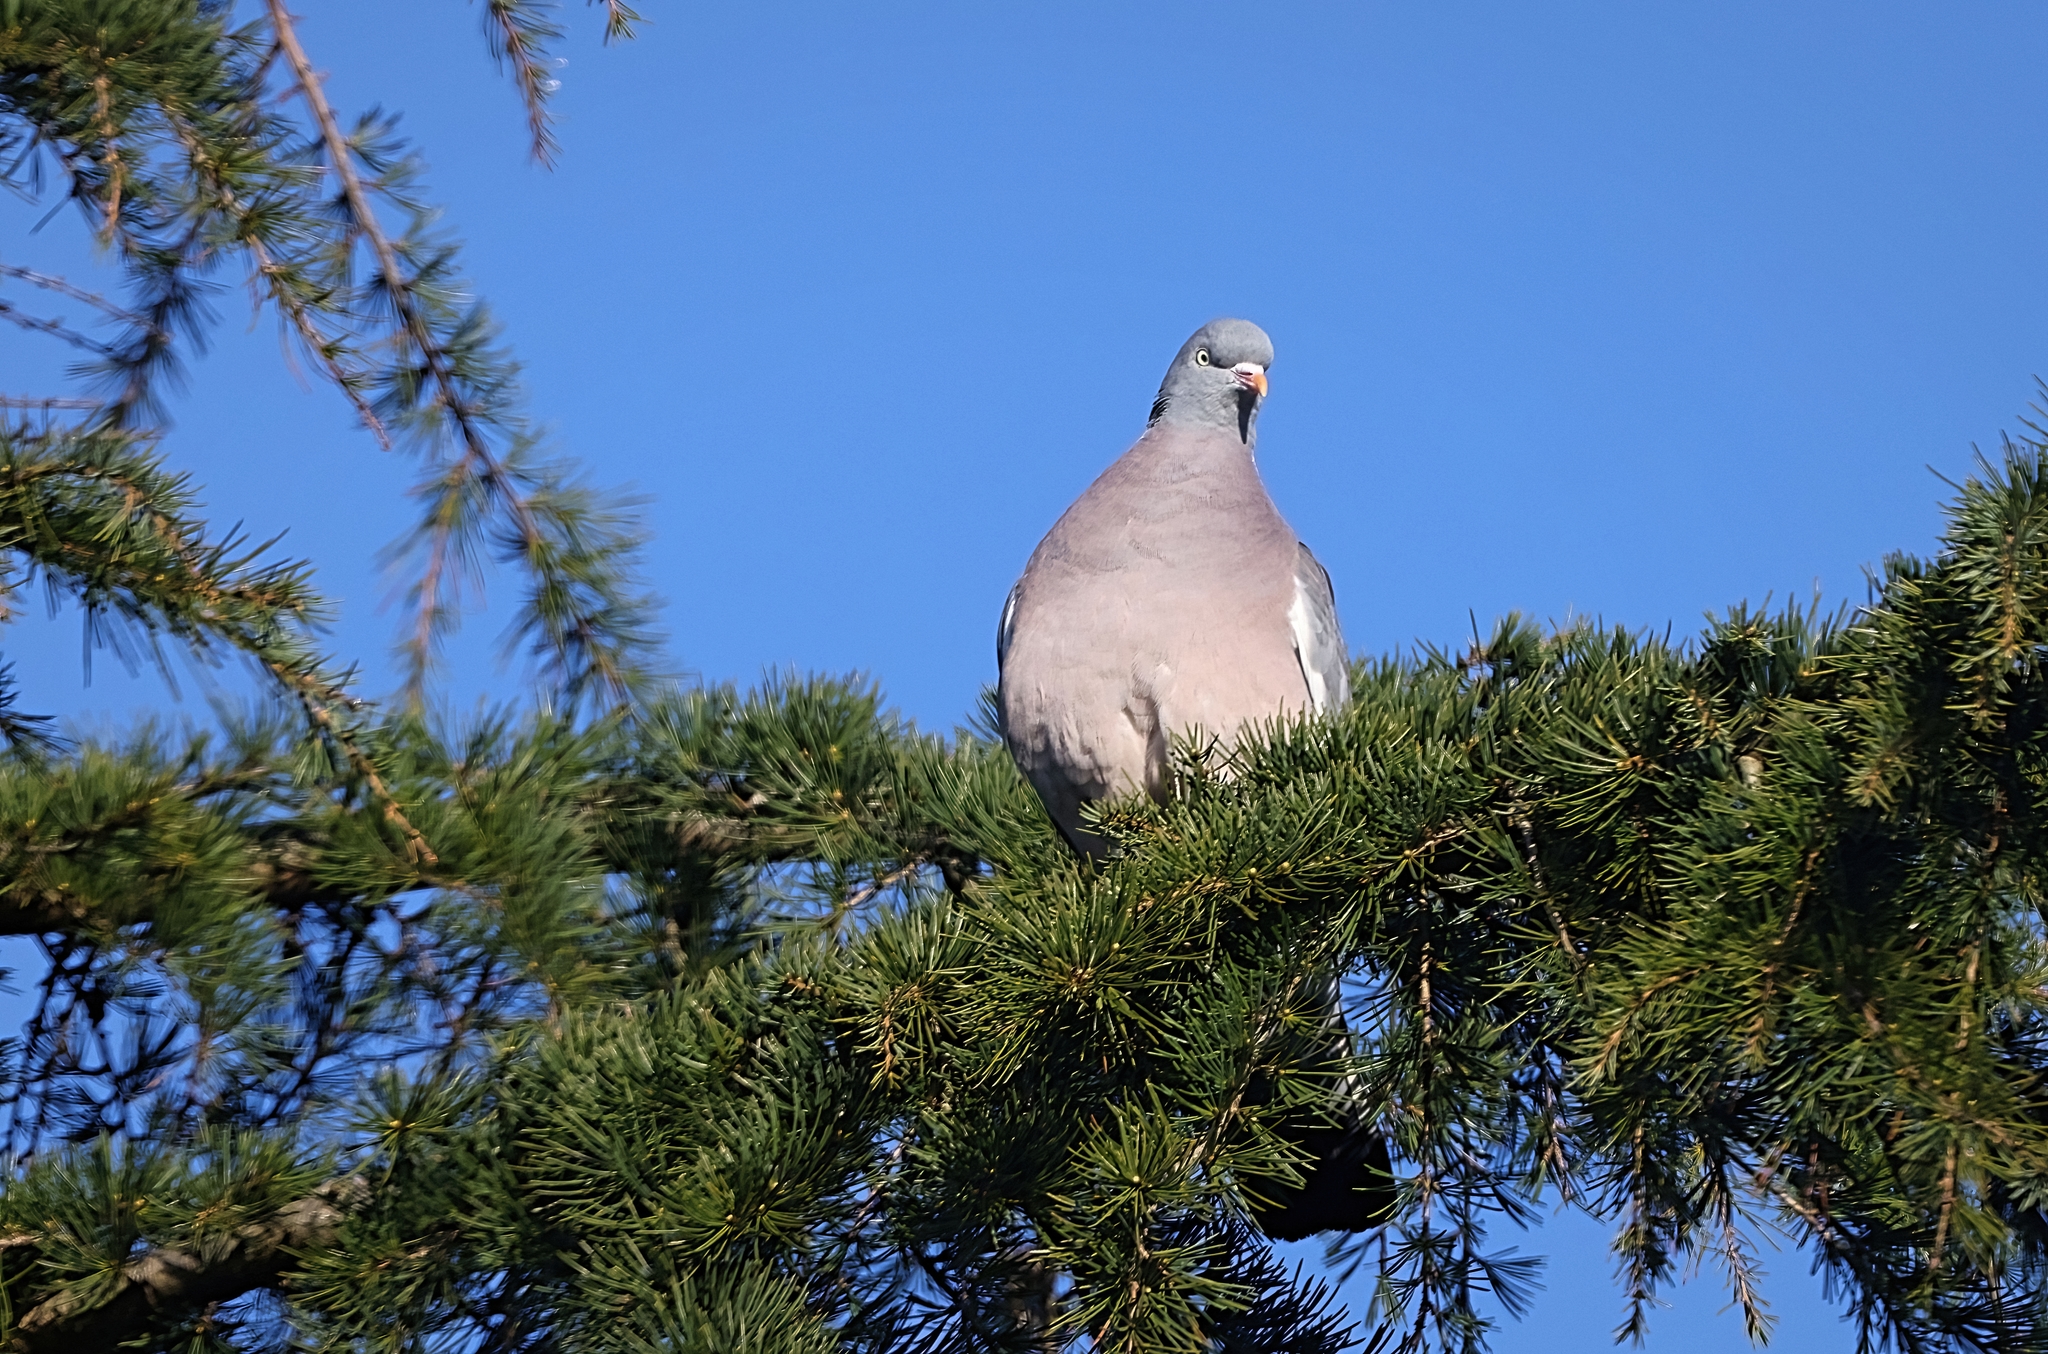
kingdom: Animalia
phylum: Chordata
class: Aves
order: Columbiformes
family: Columbidae
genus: Columba
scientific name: Columba palumbus
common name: Common wood pigeon
